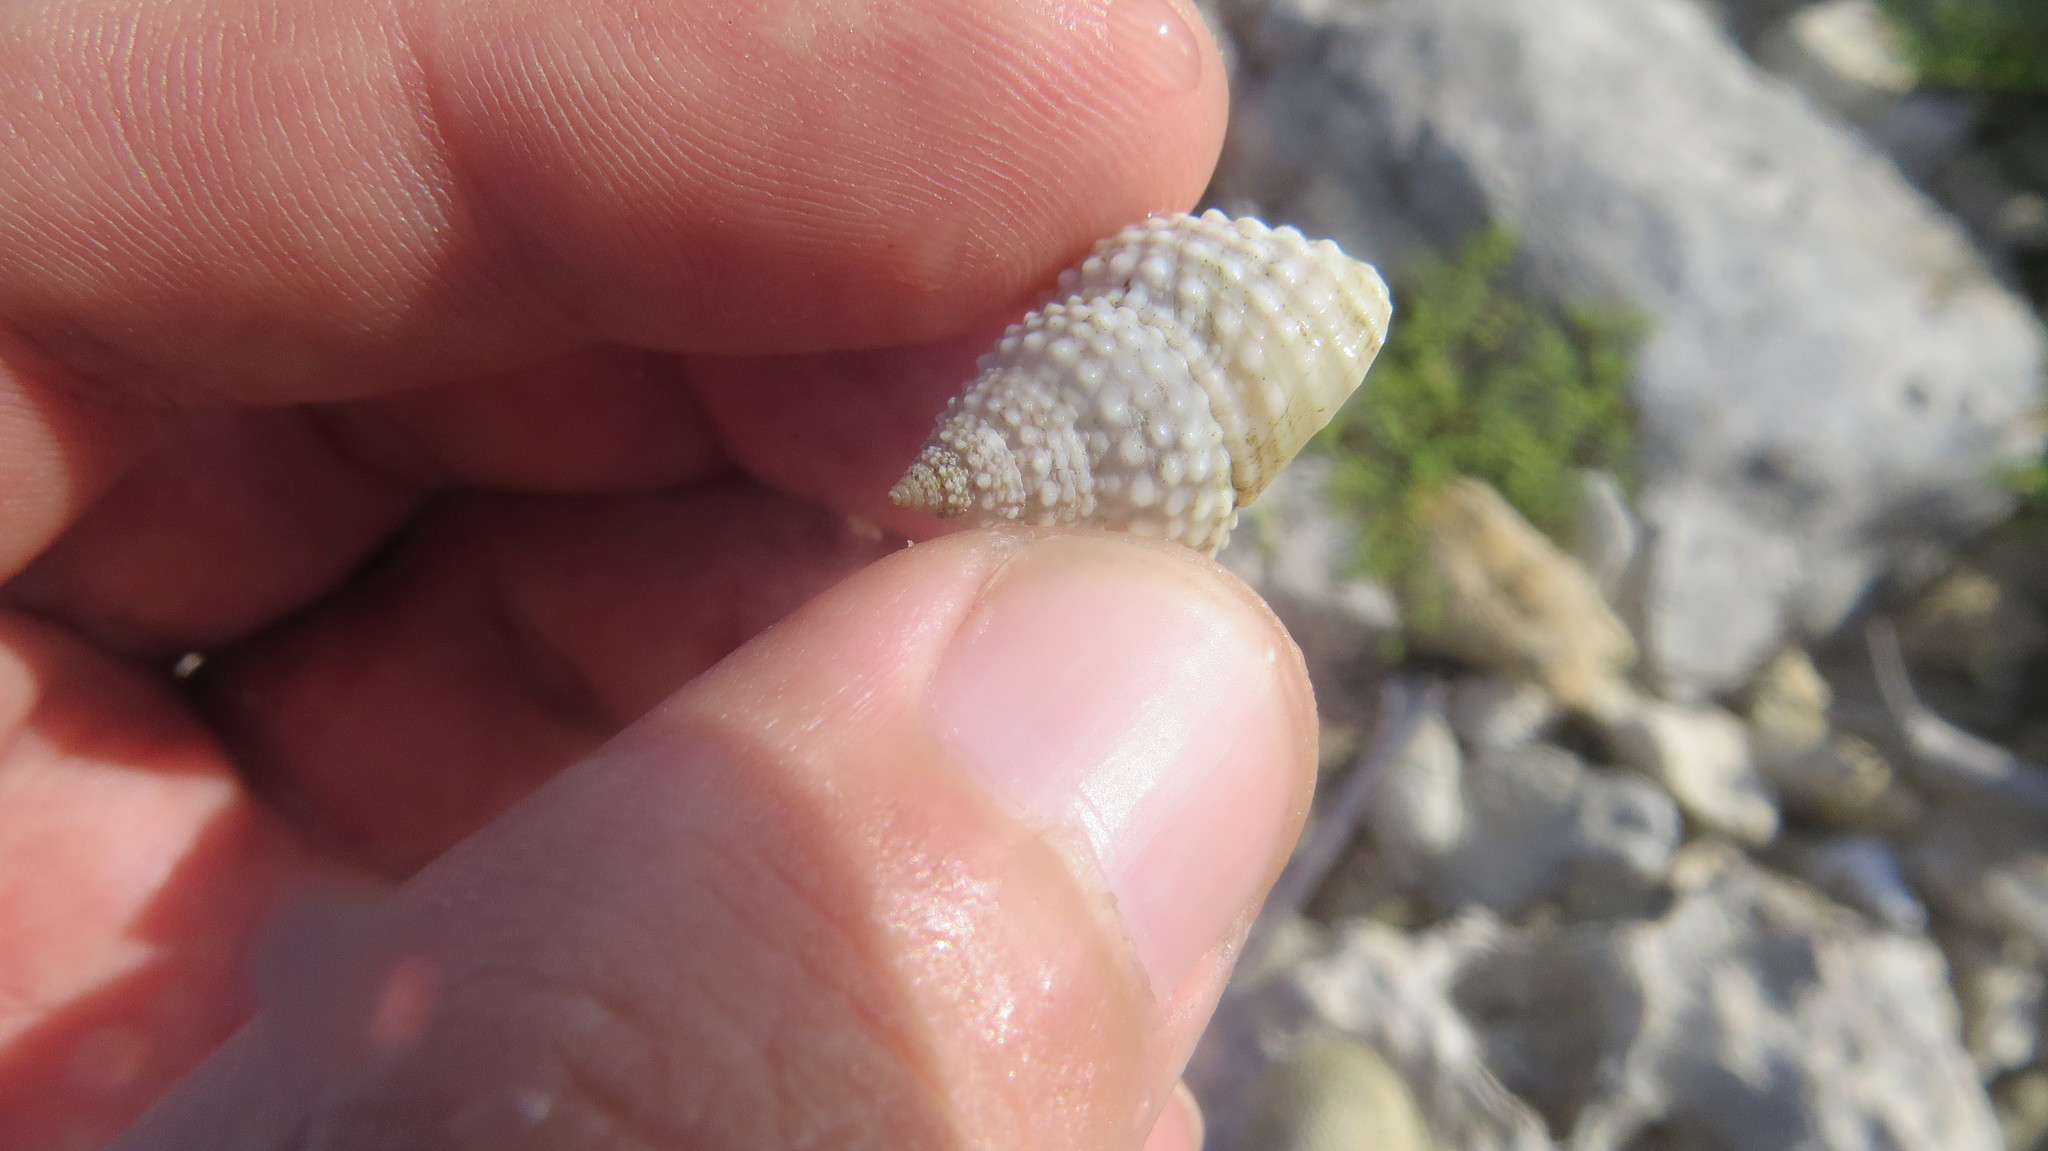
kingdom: Animalia
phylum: Mollusca
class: Gastropoda
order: Littorinimorpha
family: Littorinidae
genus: Cenchritis
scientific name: Cenchritis muricatus
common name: Beaded periwinkle
